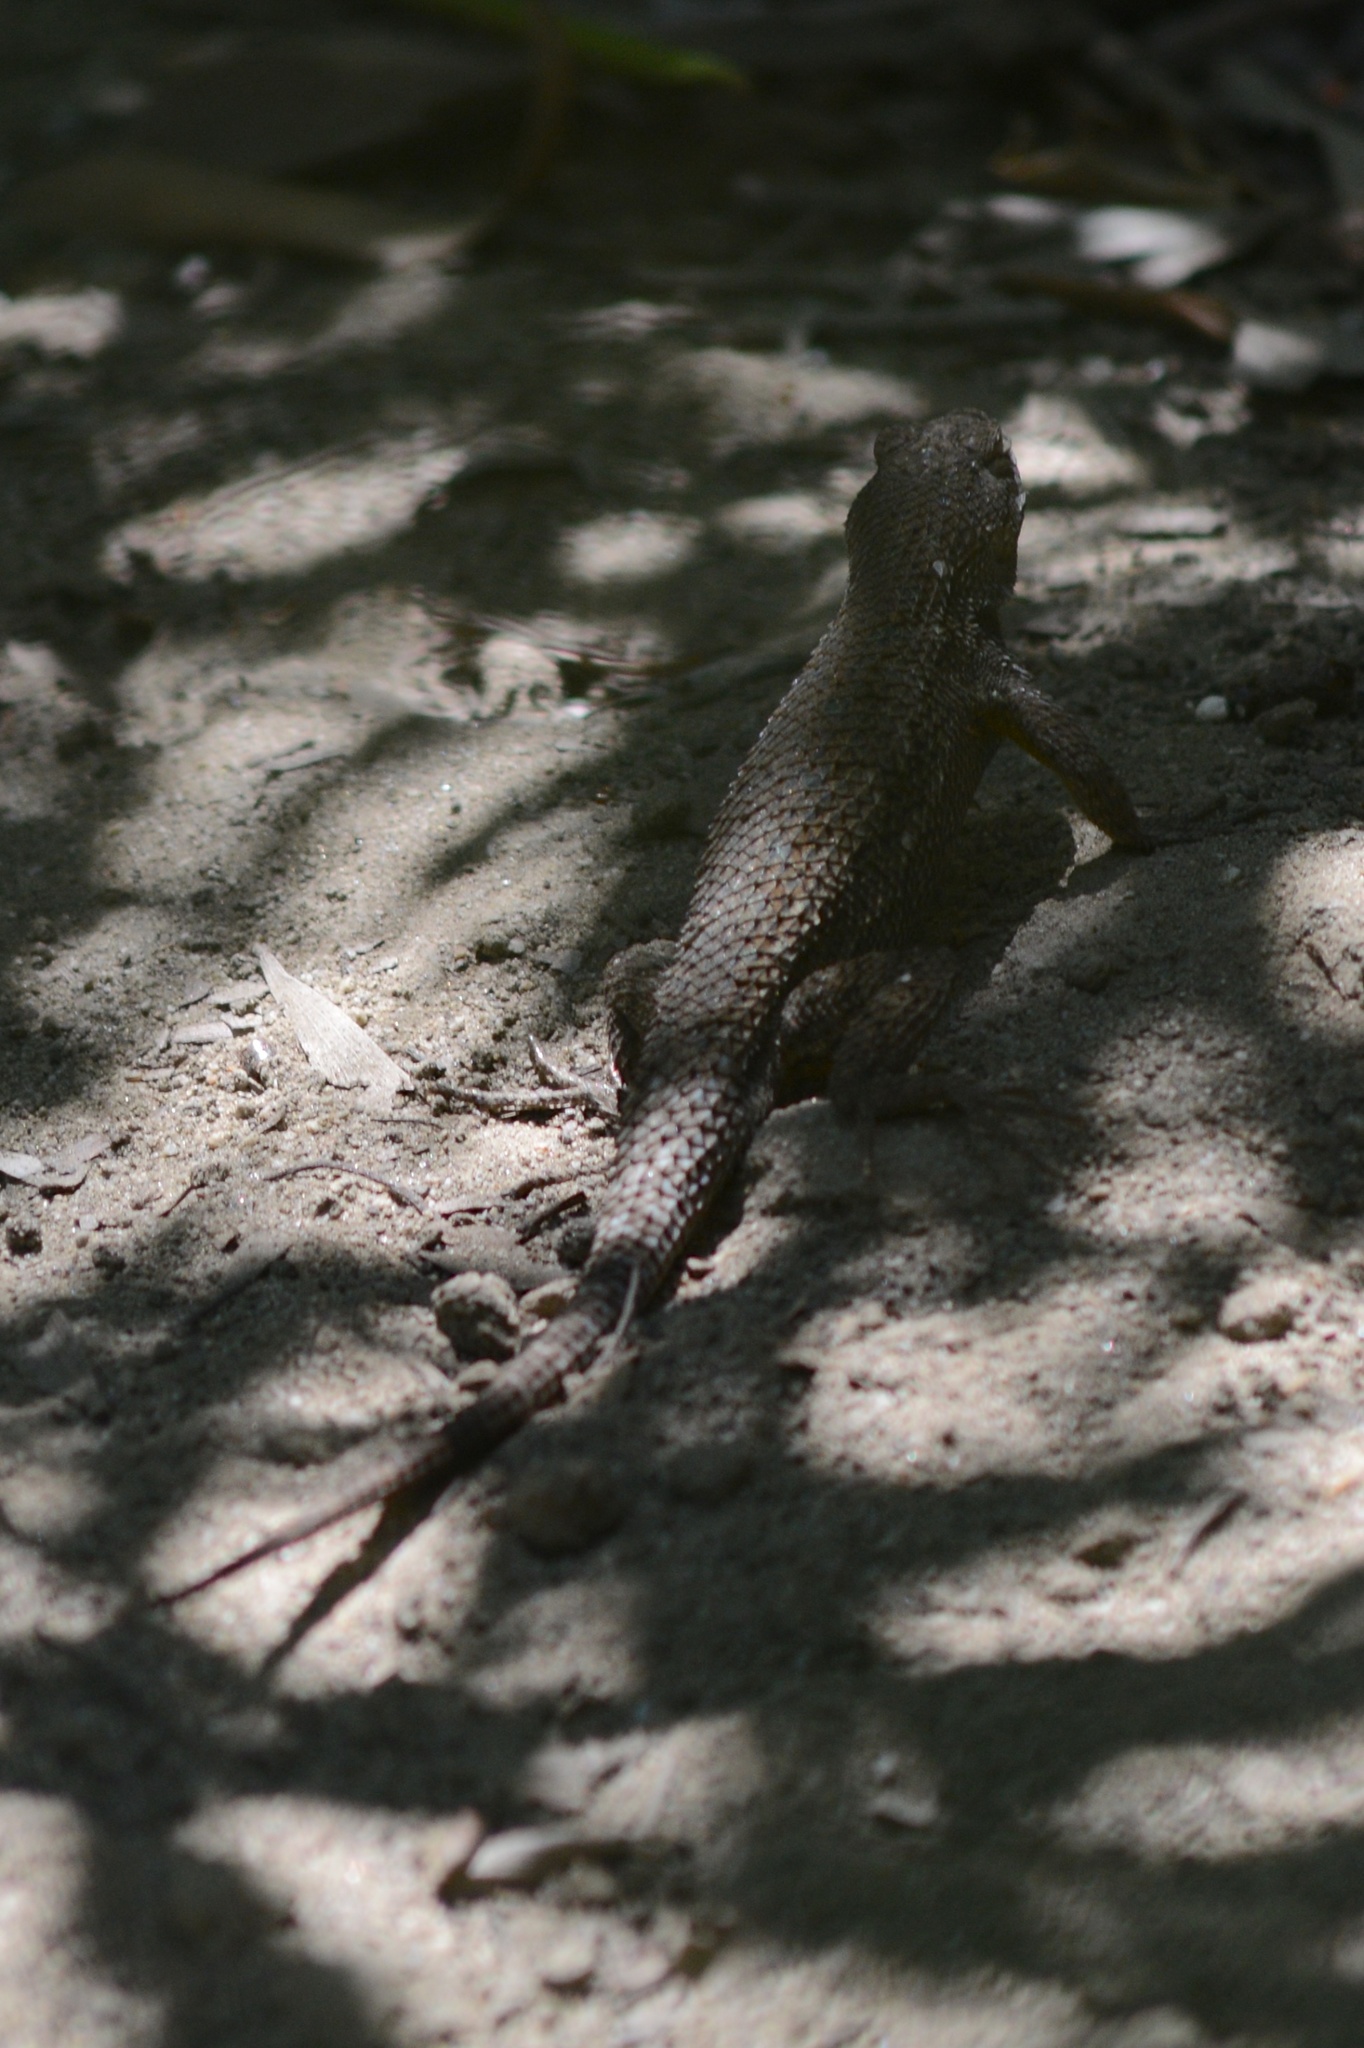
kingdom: Animalia
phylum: Chordata
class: Squamata
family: Phrynosomatidae
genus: Sceloporus
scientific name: Sceloporus occidentalis
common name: Western fence lizard
